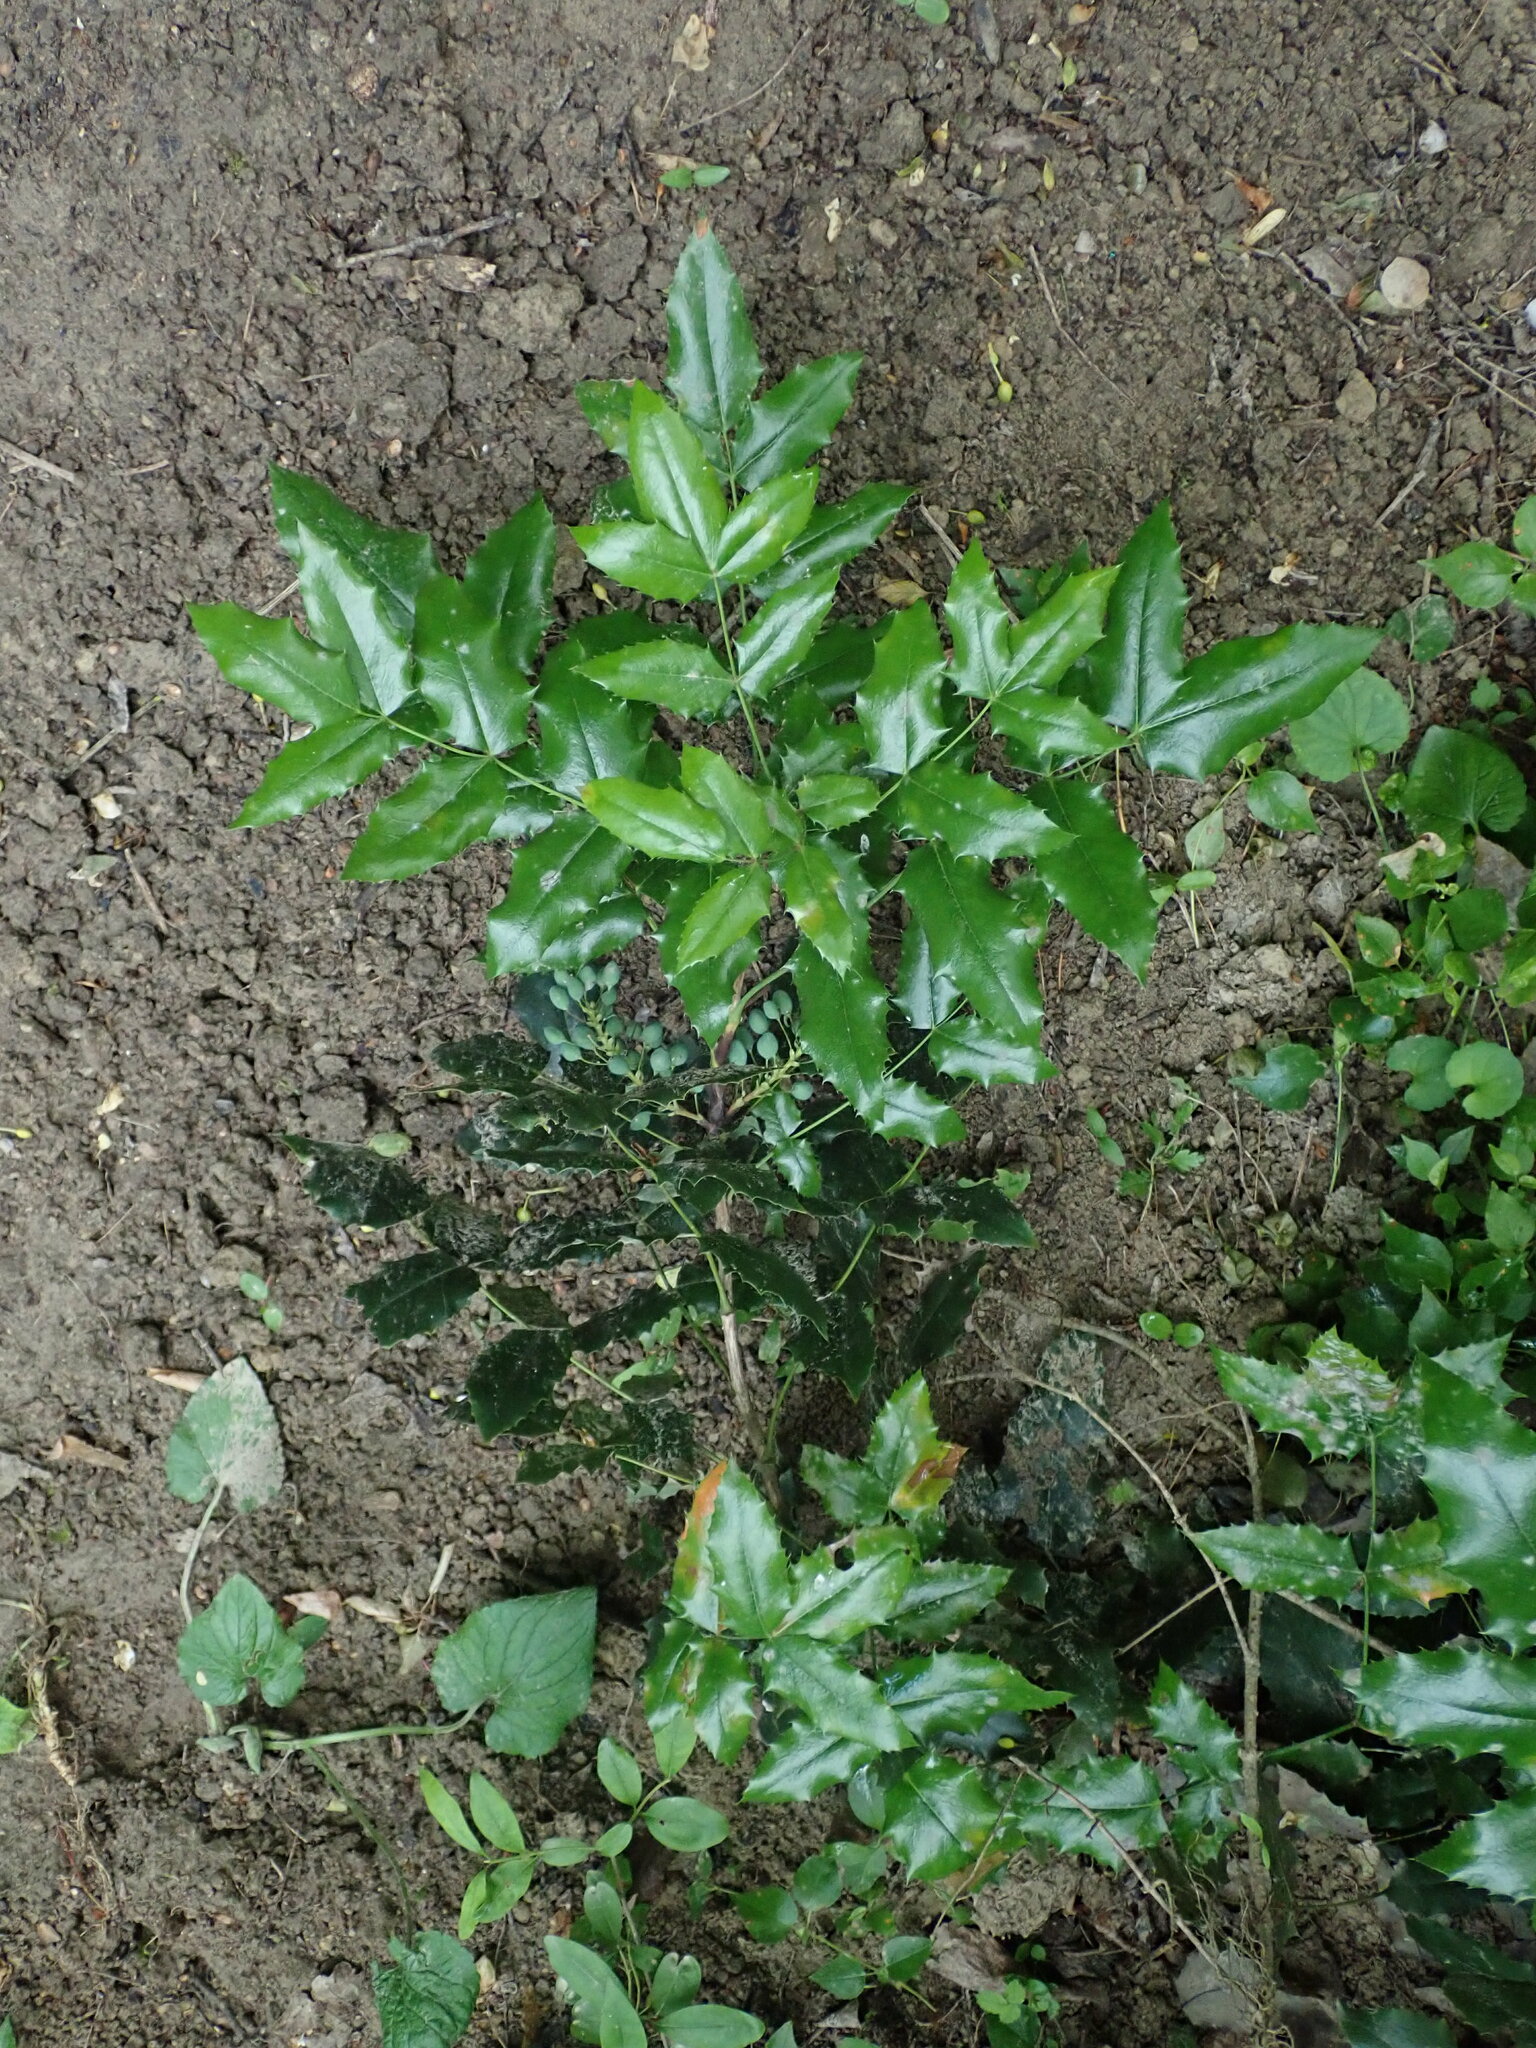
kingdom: Plantae
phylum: Tracheophyta
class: Magnoliopsida
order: Ranunculales
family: Berberidaceae
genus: Mahonia
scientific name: Mahonia aquifolium
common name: Oregon-grape
